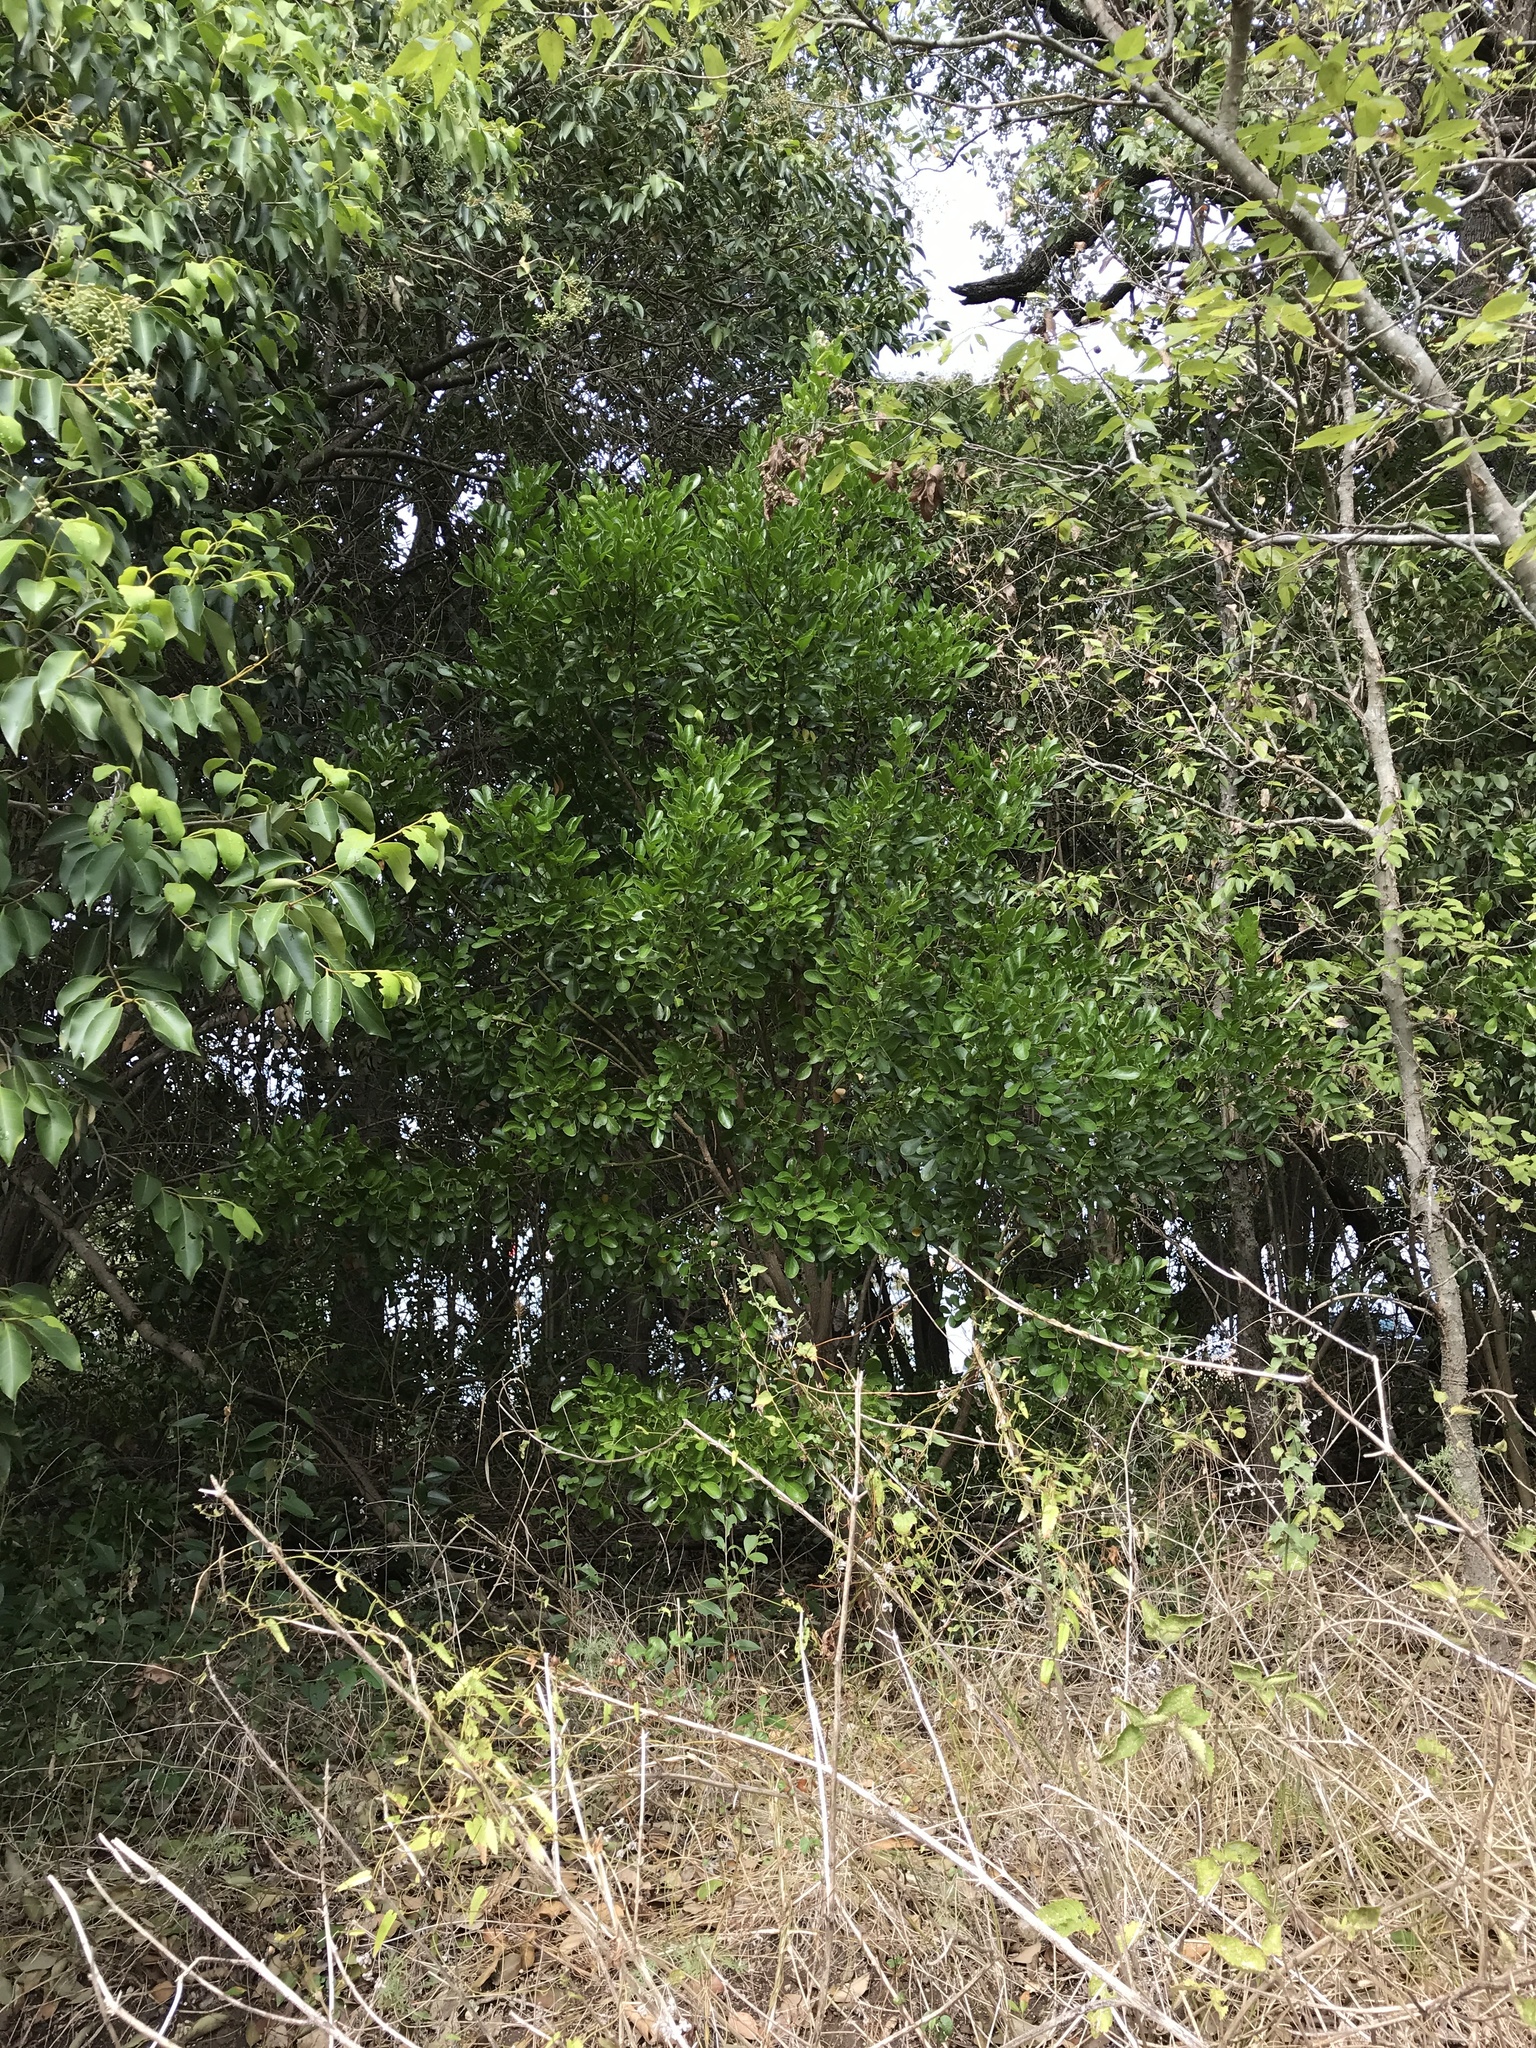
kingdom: Plantae
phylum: Tracheophyta
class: Magnoliopsida
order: Fabales
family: Fabaceae
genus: Dermatophyllum
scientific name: Dermatophyllum secundiflorum
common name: Texas-mountain-laurel
